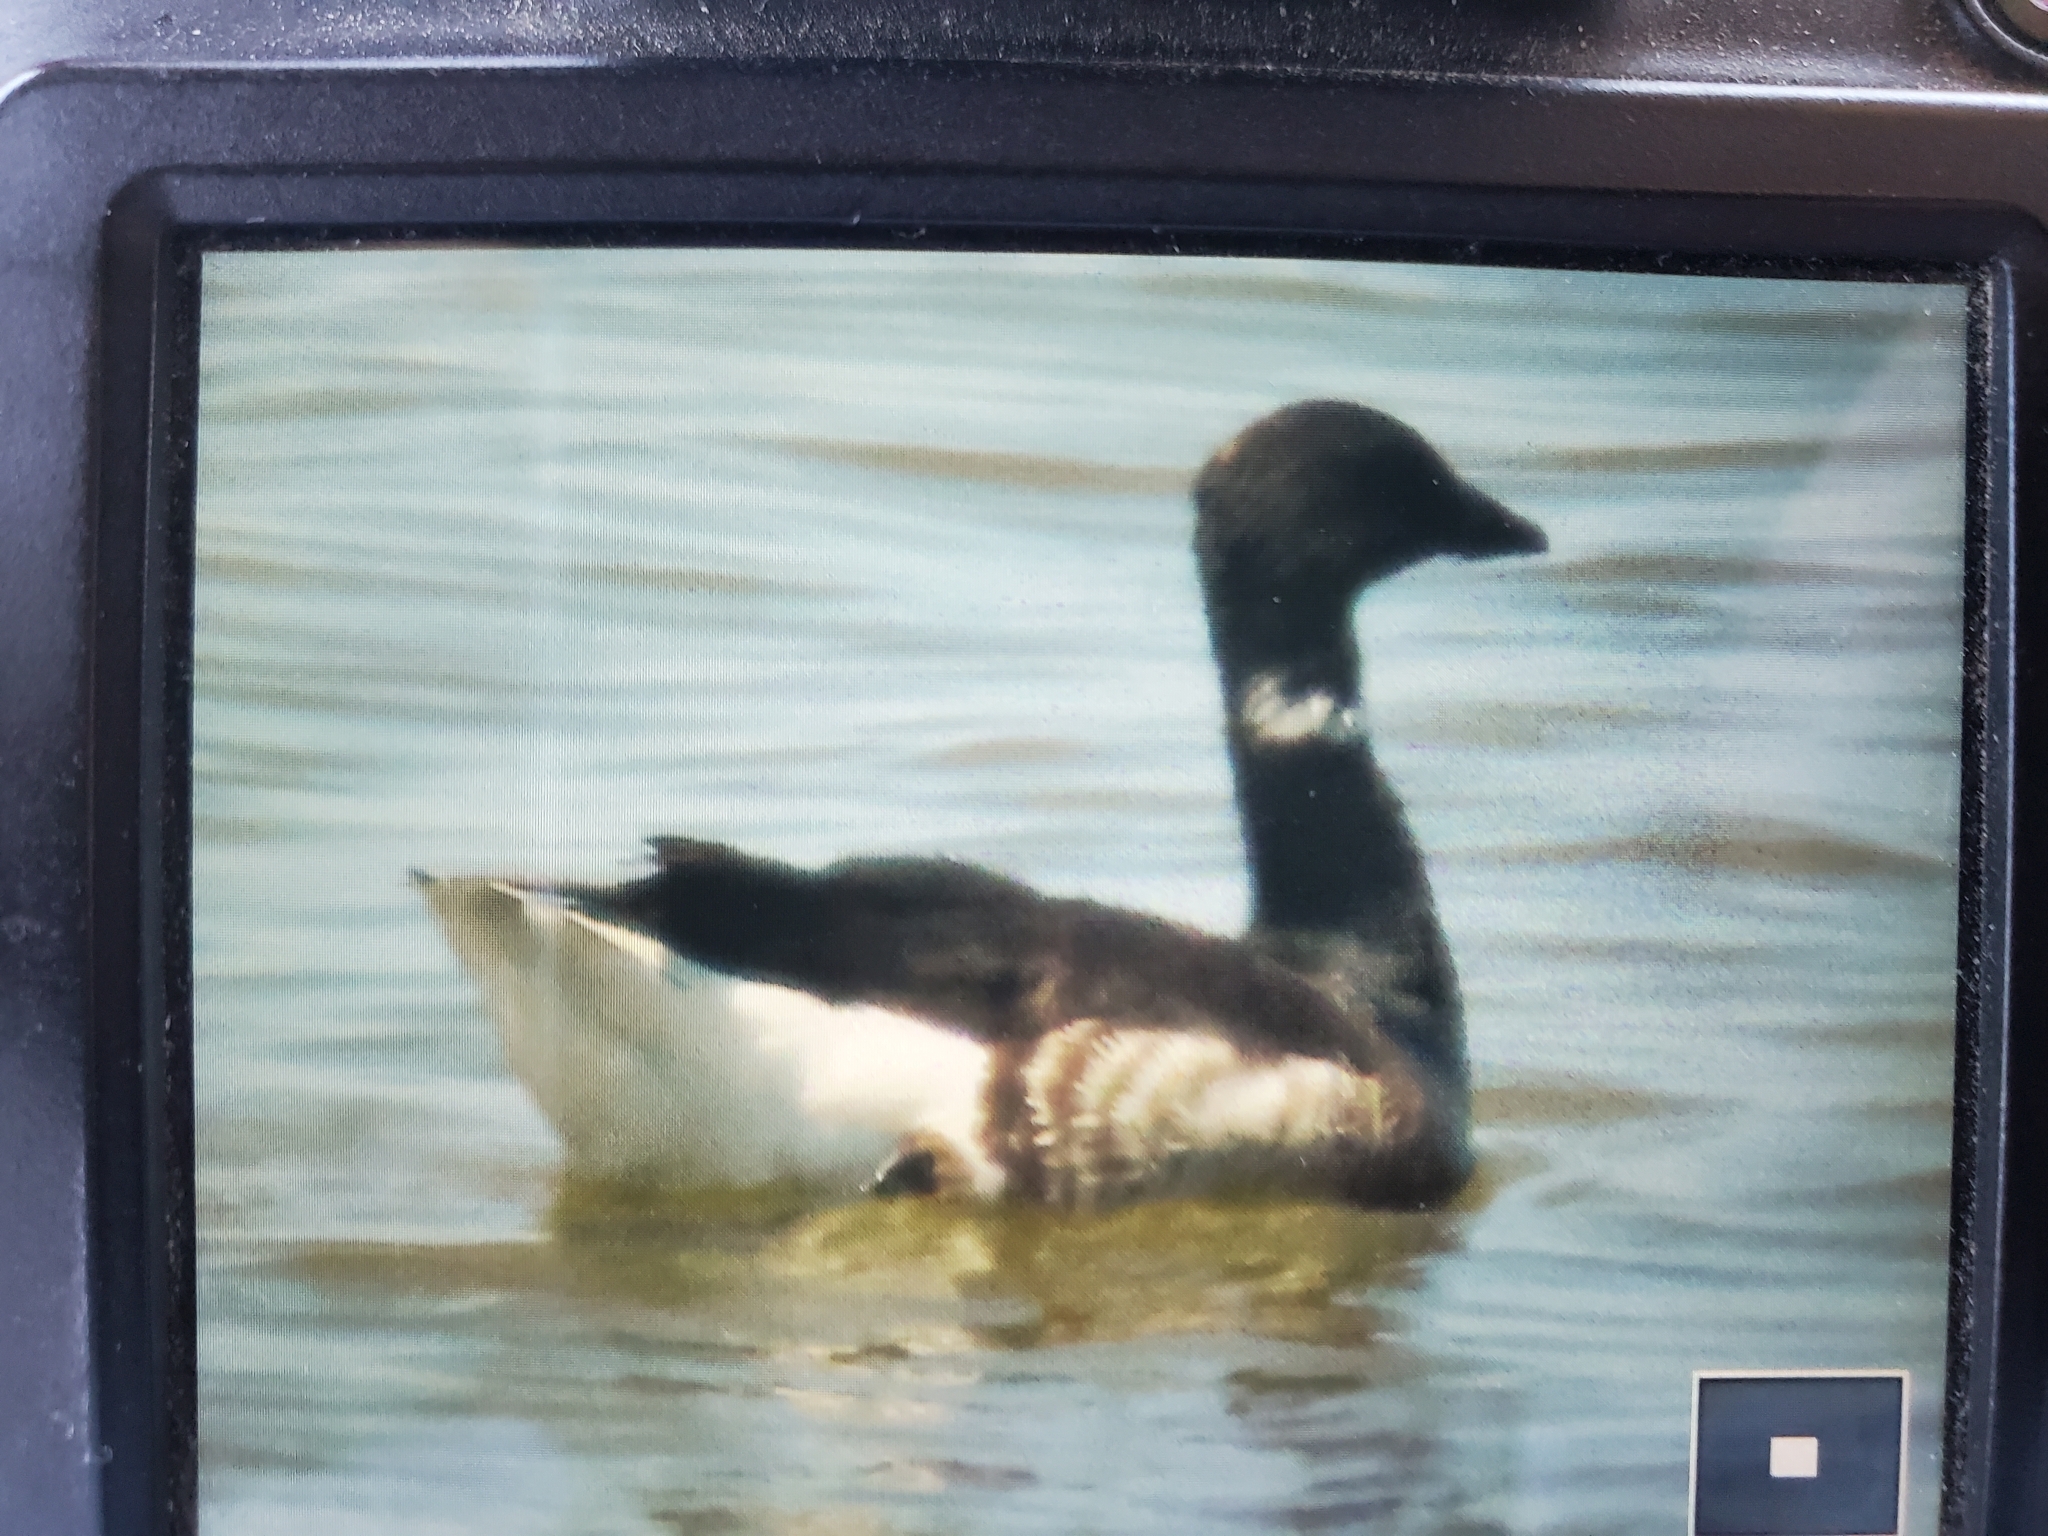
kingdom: Animalia
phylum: Chordata
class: Aves
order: Anseriformes
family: Anatidae
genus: Branta
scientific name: Branta bernicla
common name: Brant goose
